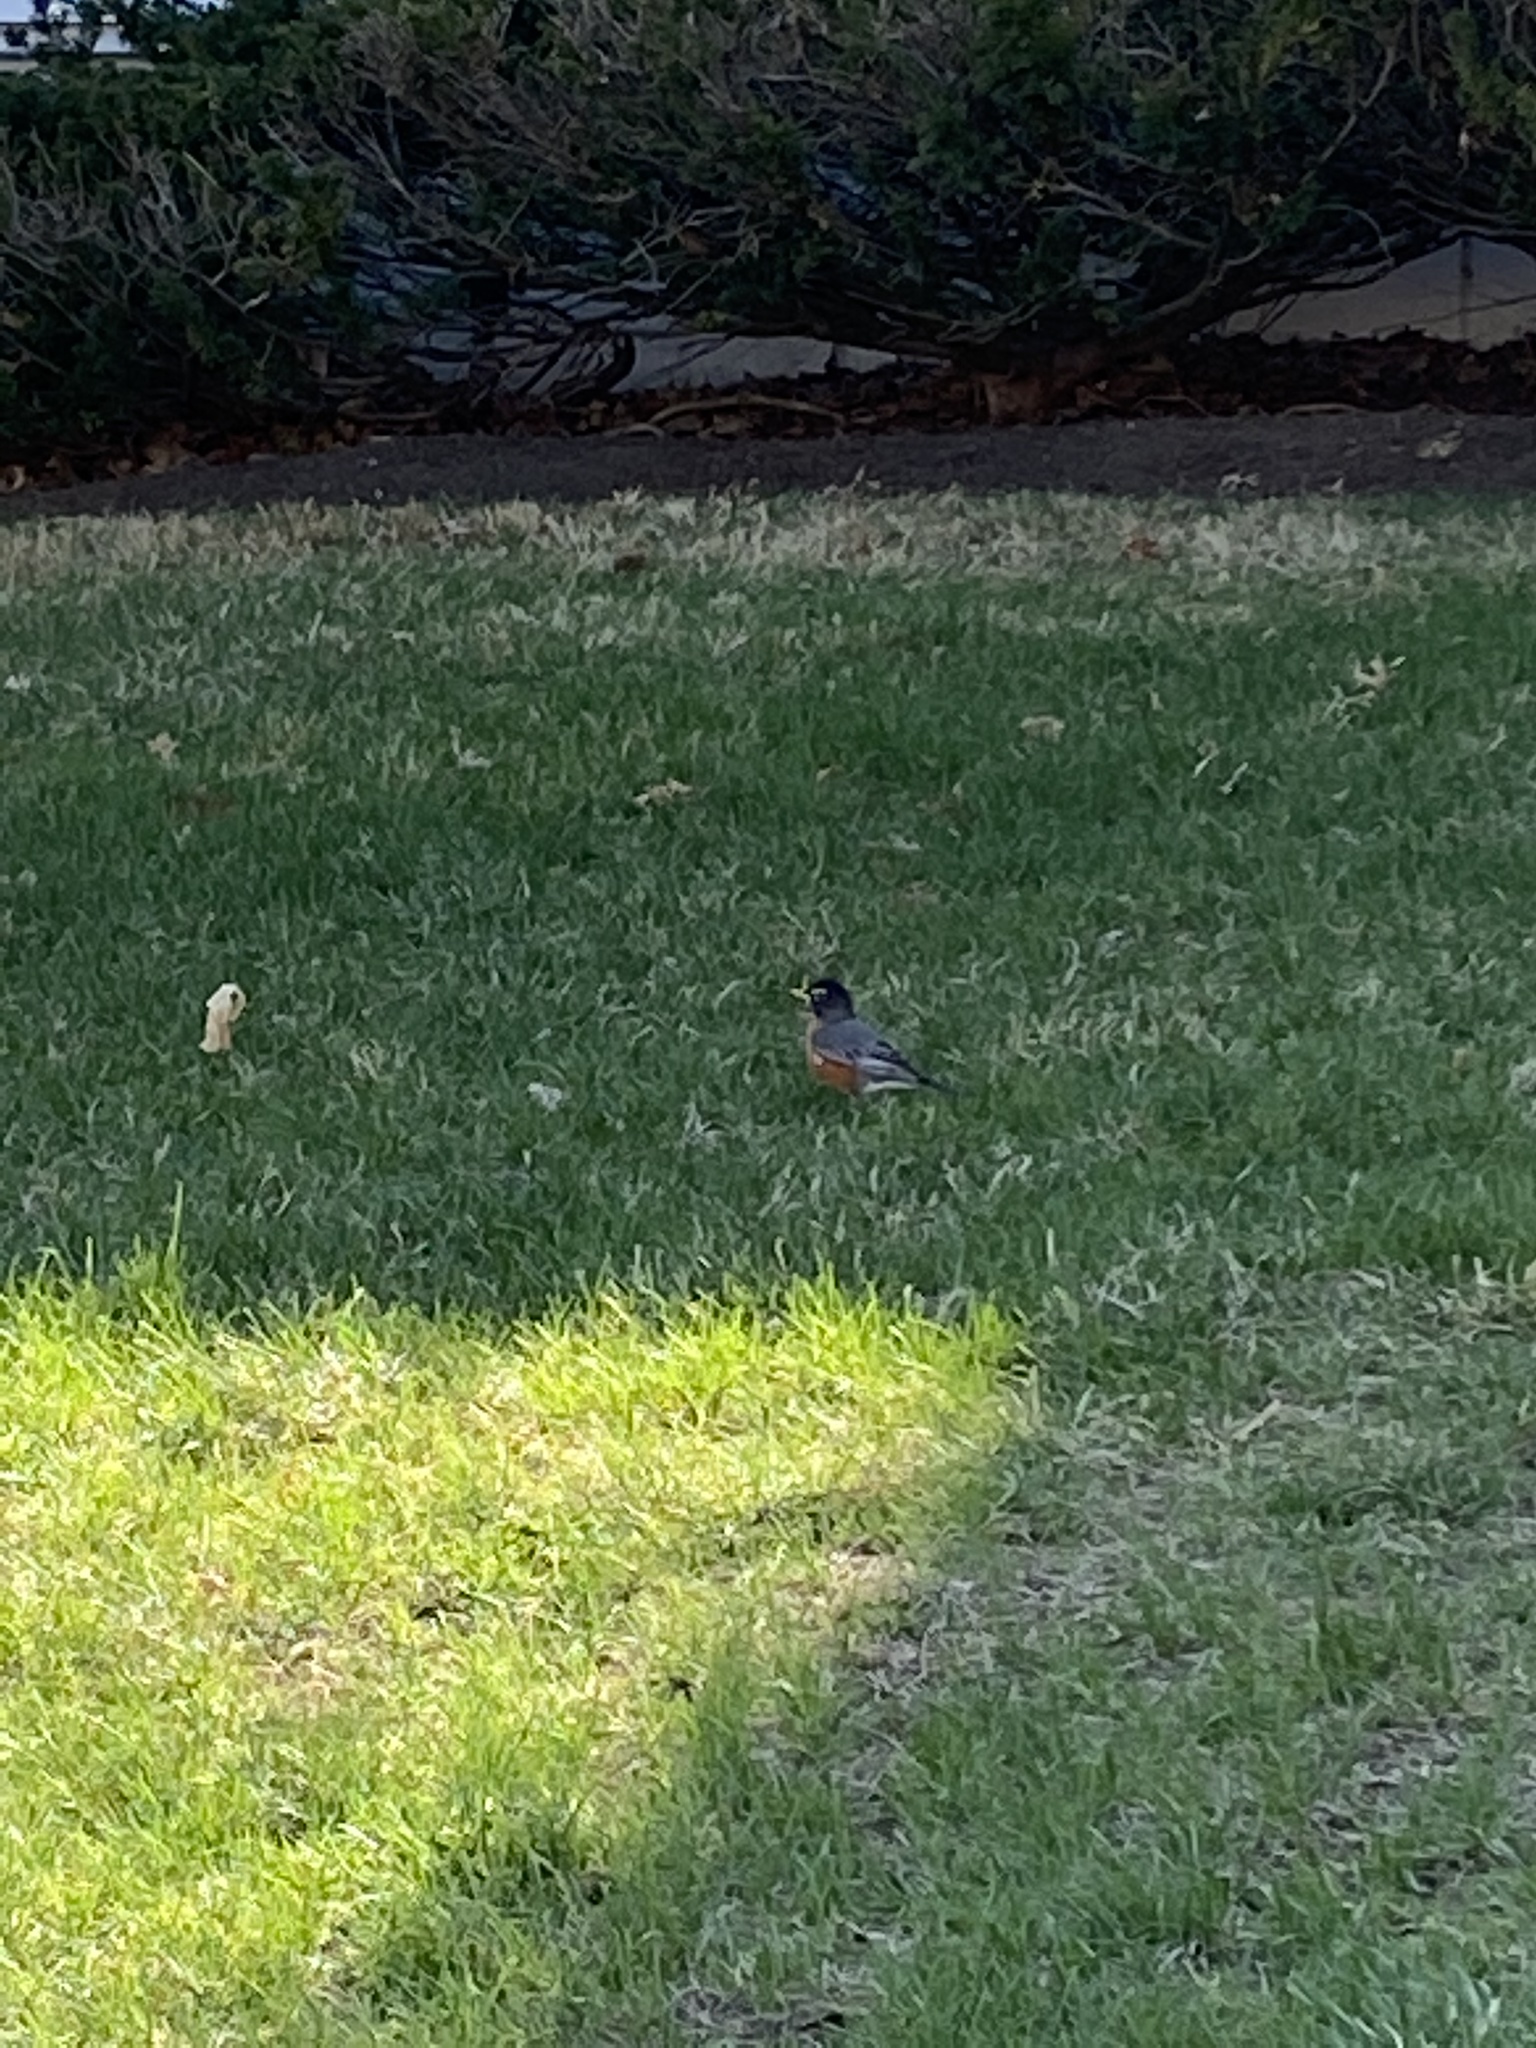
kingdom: Animalia
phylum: Chordata
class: Aves
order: Passeriformes
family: Turdidae
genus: Turdus
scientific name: Turdus migratorius
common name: American robin
